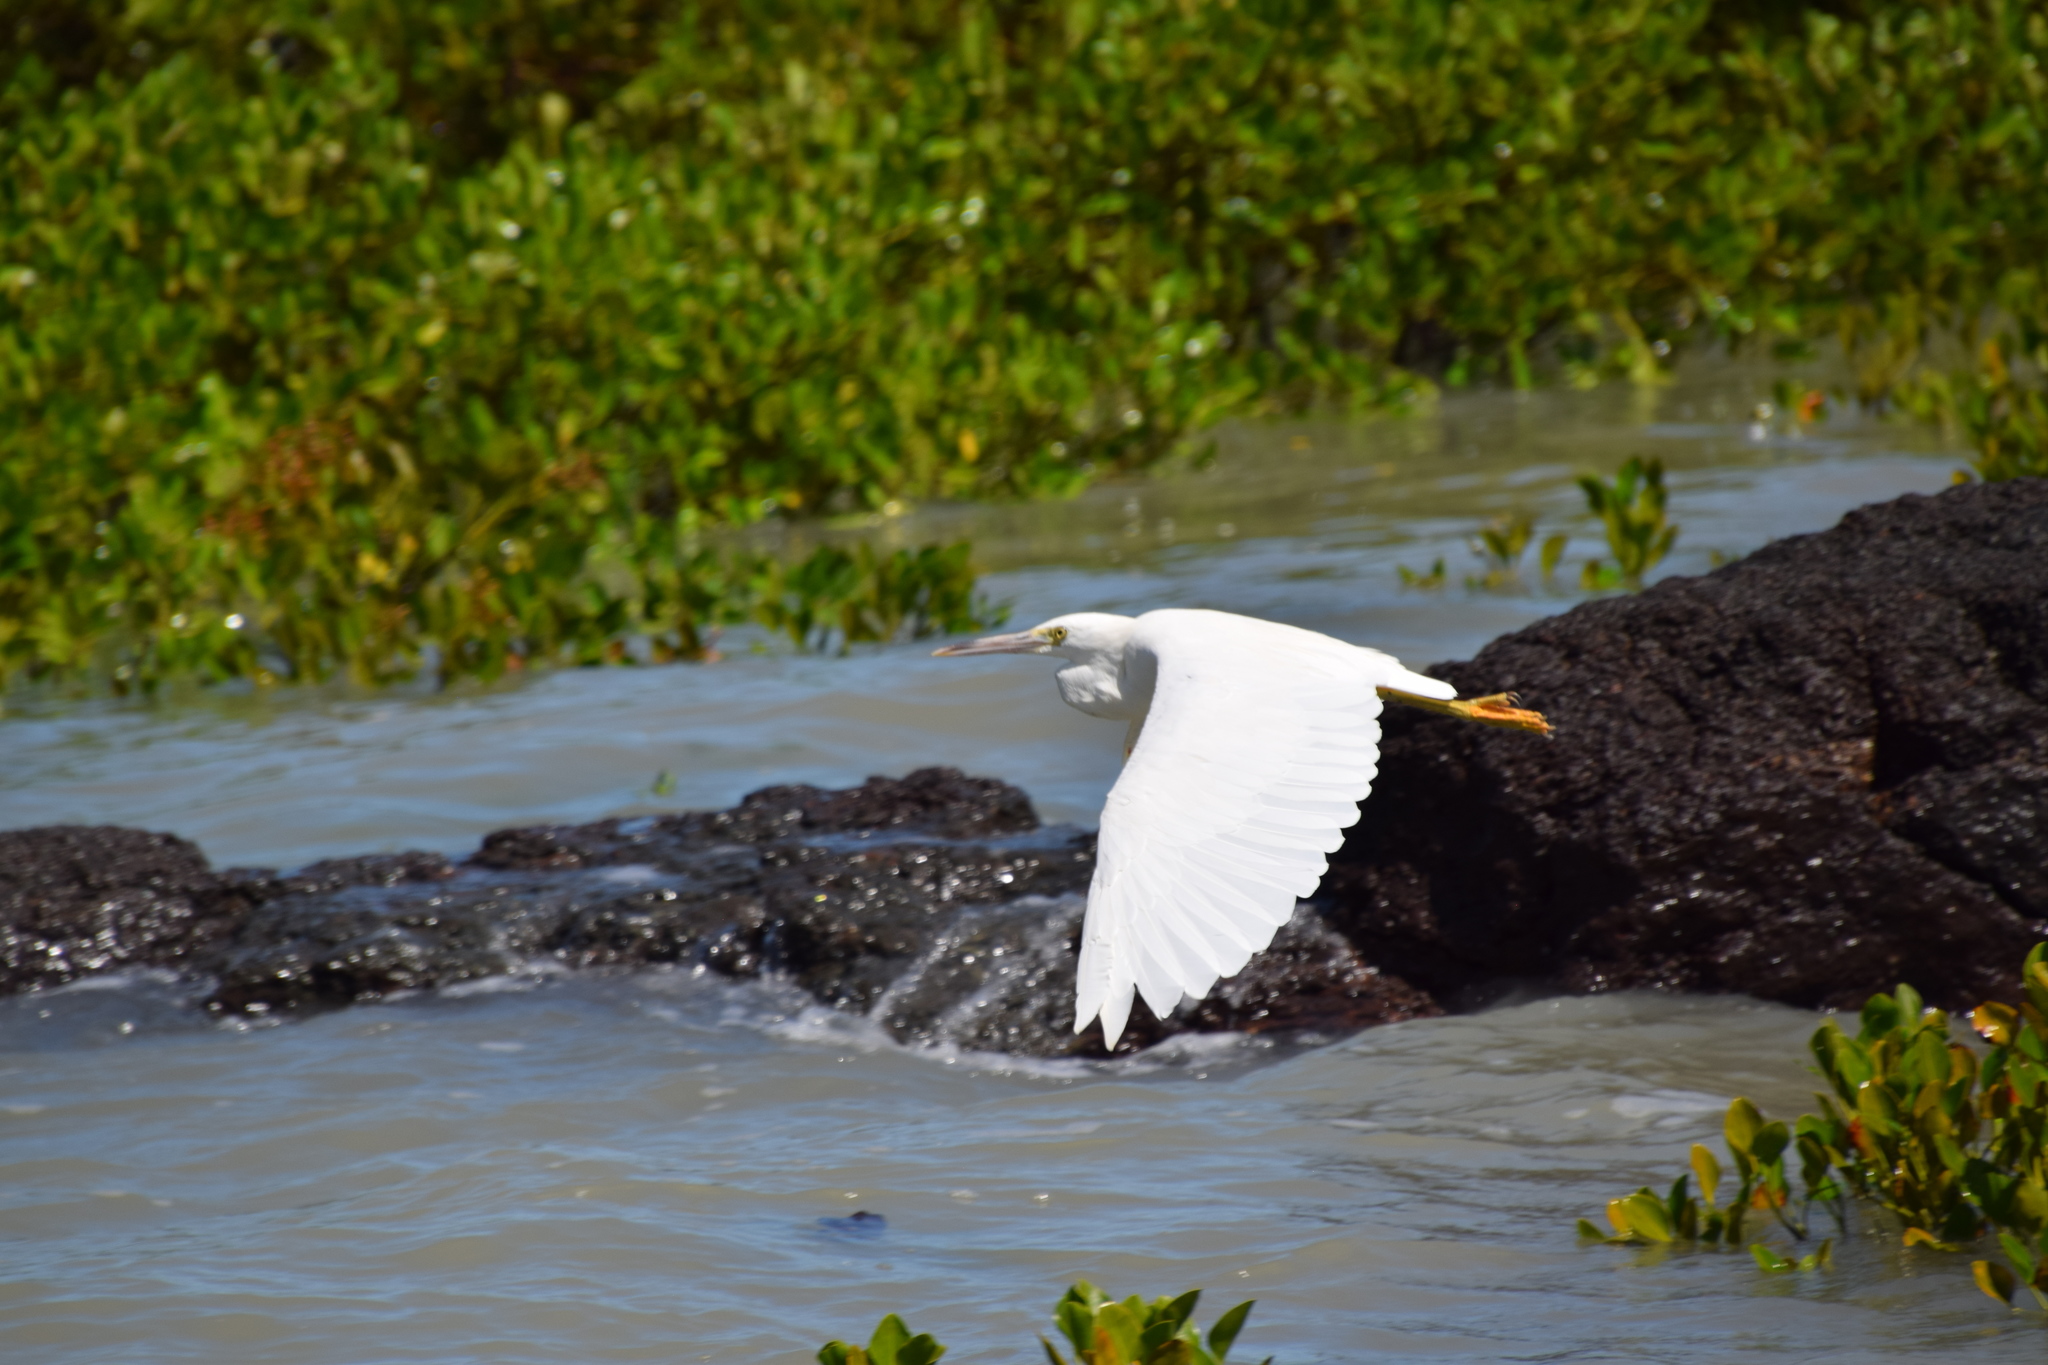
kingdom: Animalia
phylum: Chordata
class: Aves
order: Pelecaniformes
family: Ardeidae
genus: Egretta
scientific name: Egretta sacra
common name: Pacific reef heron
